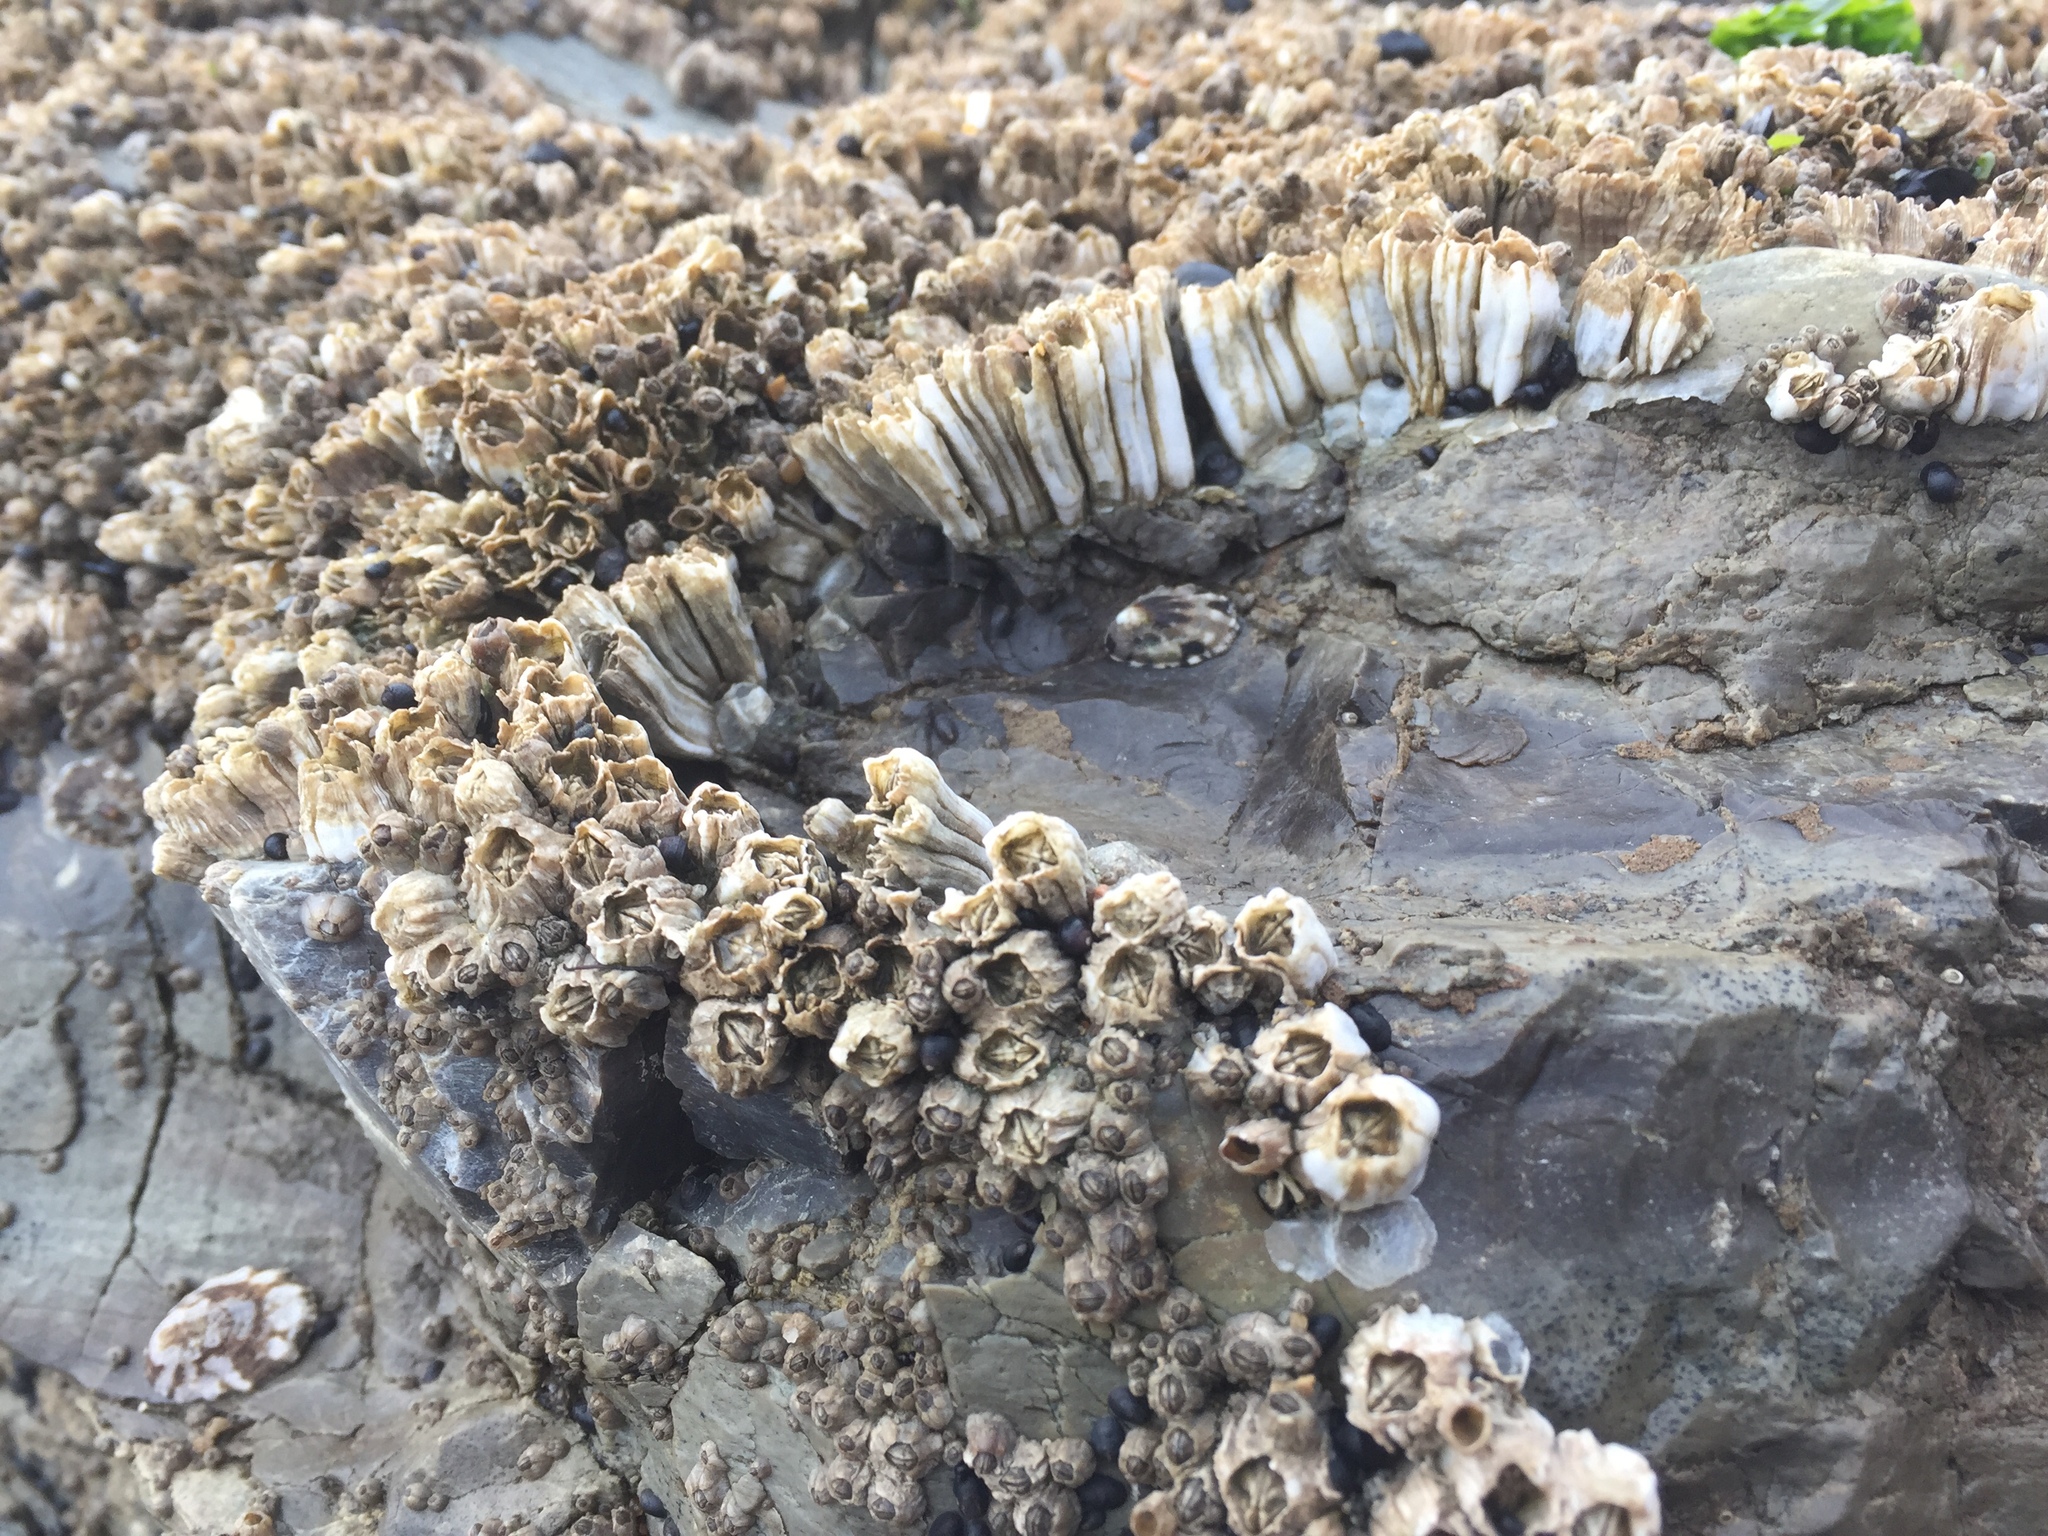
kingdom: Animalia
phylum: Arthropoda
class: Maxillopoda
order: Sessilia
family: Balanidae
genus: Balanus
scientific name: Balanus glandula
